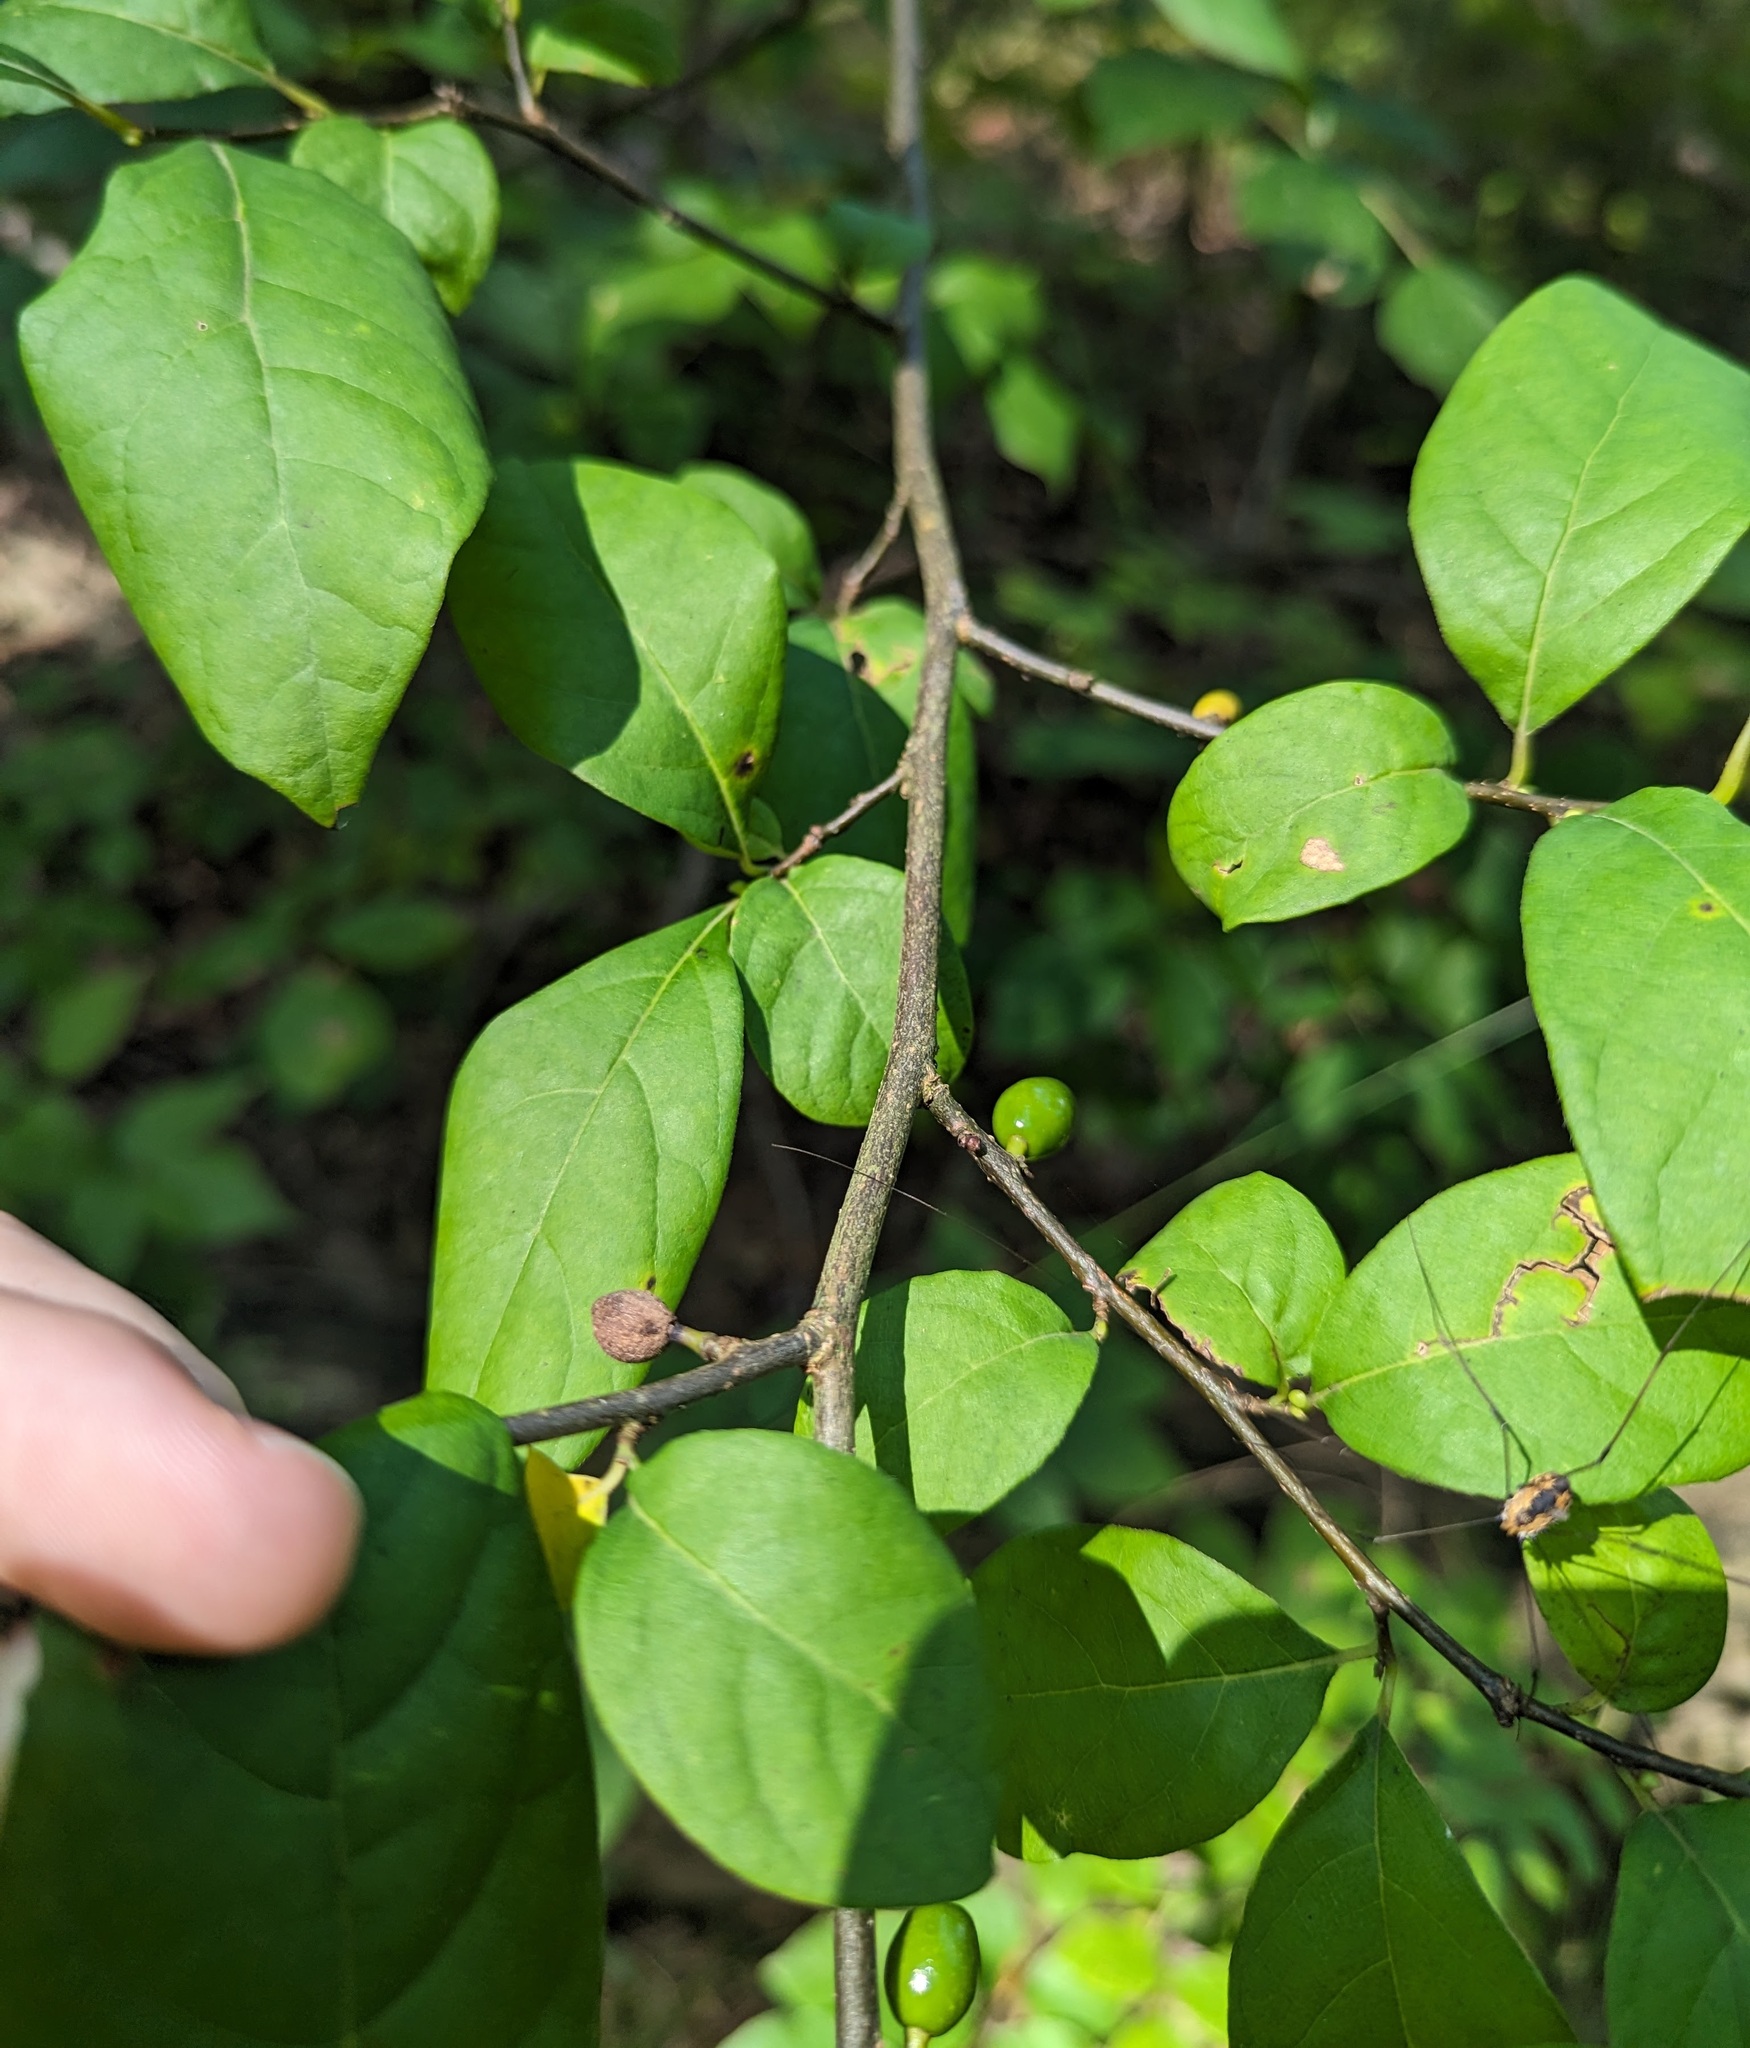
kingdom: Plantae
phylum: Tracheophyta
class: Magnoliopsida
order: Laurales
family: Lauraceae
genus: Lindera
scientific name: Lindera benzoin
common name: Spicebush
